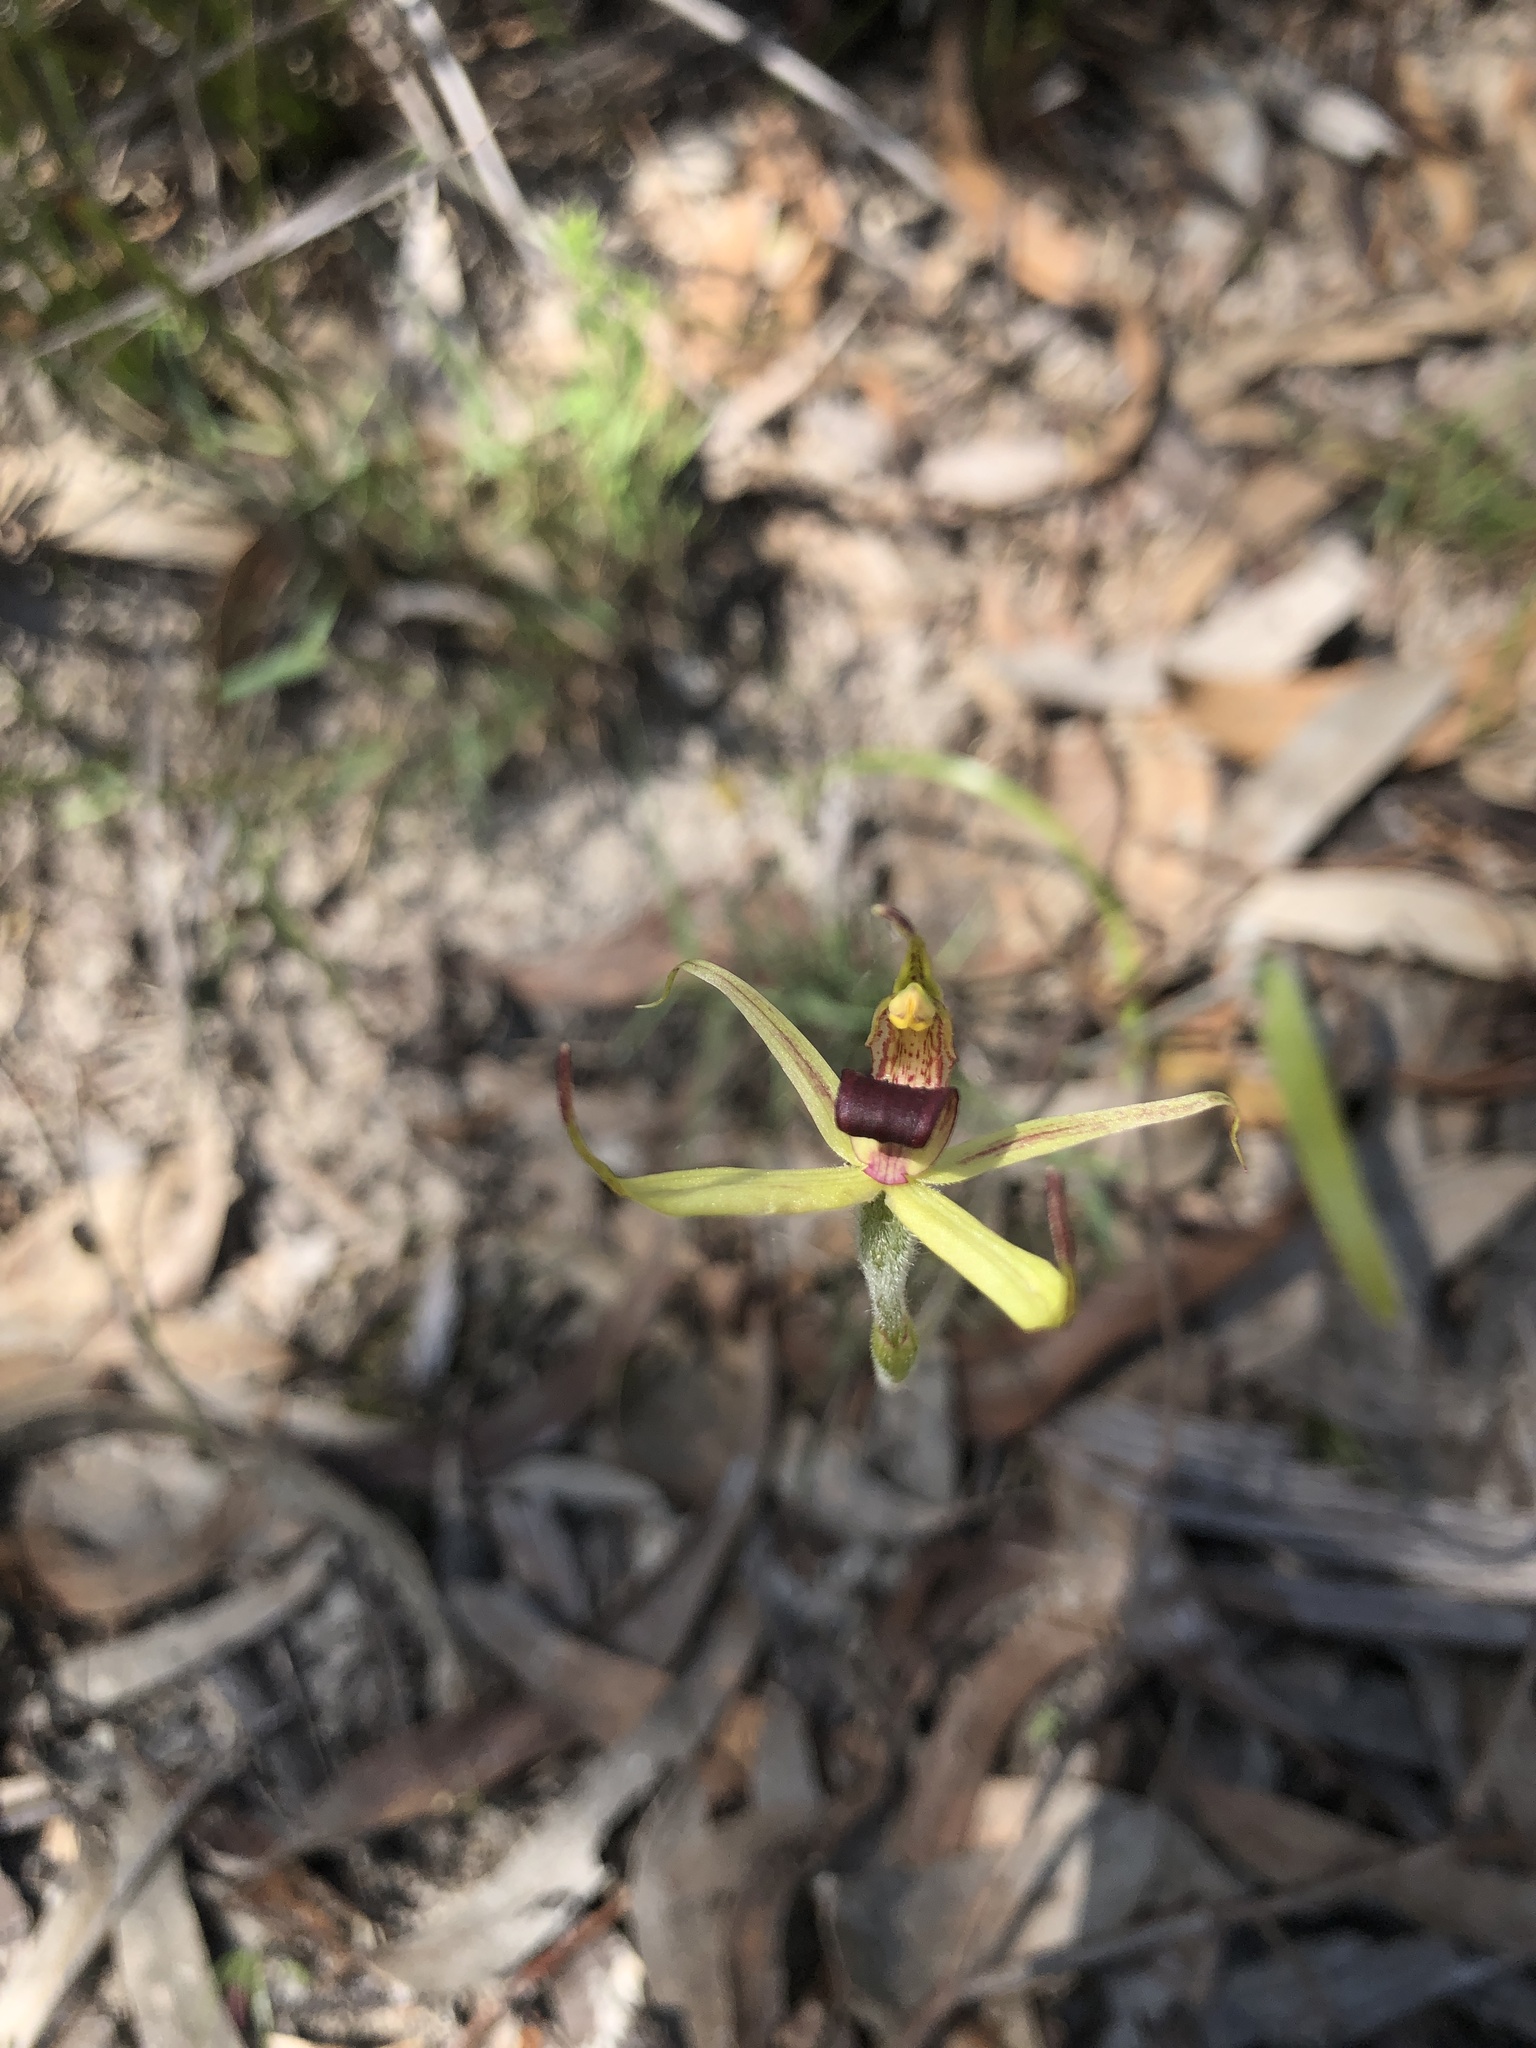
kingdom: Plantae
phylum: Tracheophyta
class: Liliopsida
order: Asparagales
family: Orchidaceae
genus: Caladenia
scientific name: Caladenia leptochila
